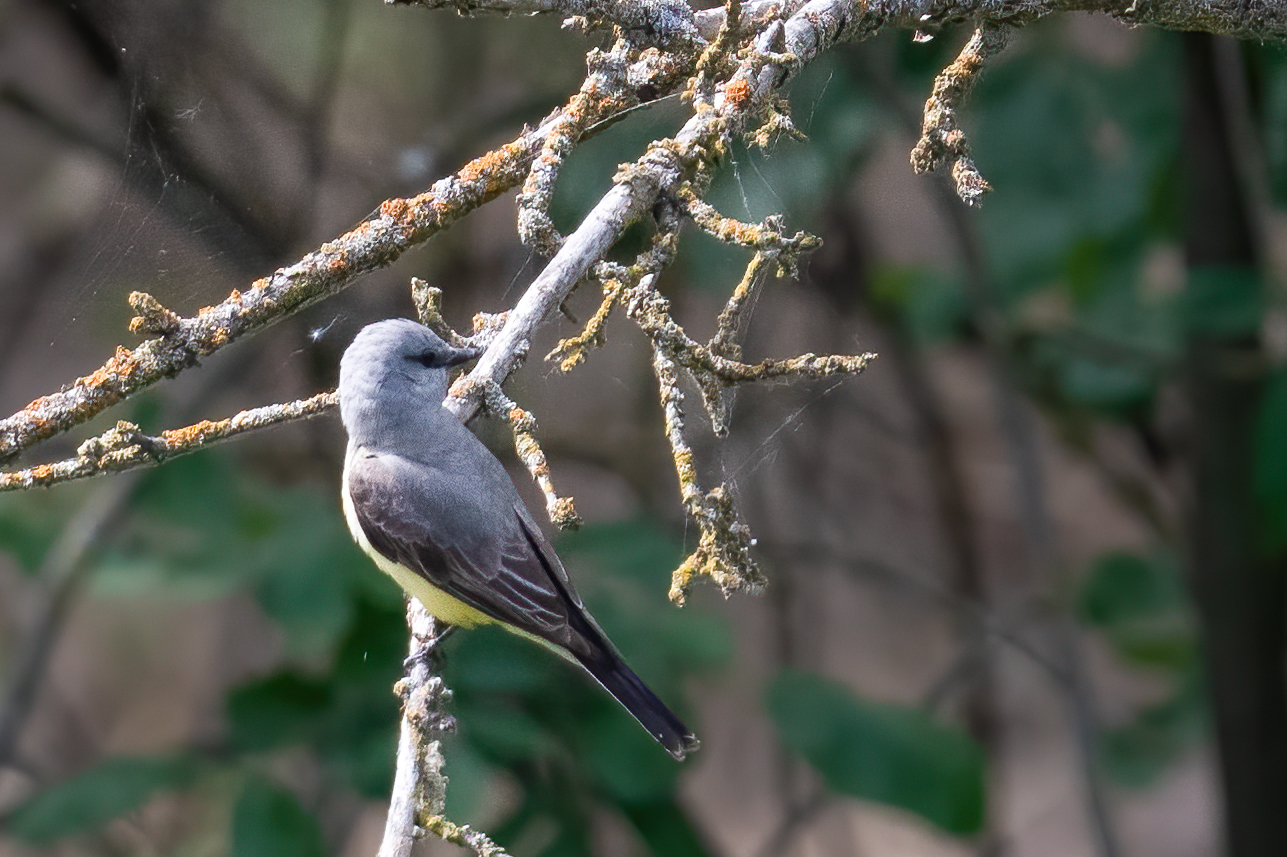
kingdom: Animalia
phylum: Chordata
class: Aves
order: Passeriformes
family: Tyrannidae
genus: Tyrannus
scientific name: Tyrannus verticalis
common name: Western kingbird
